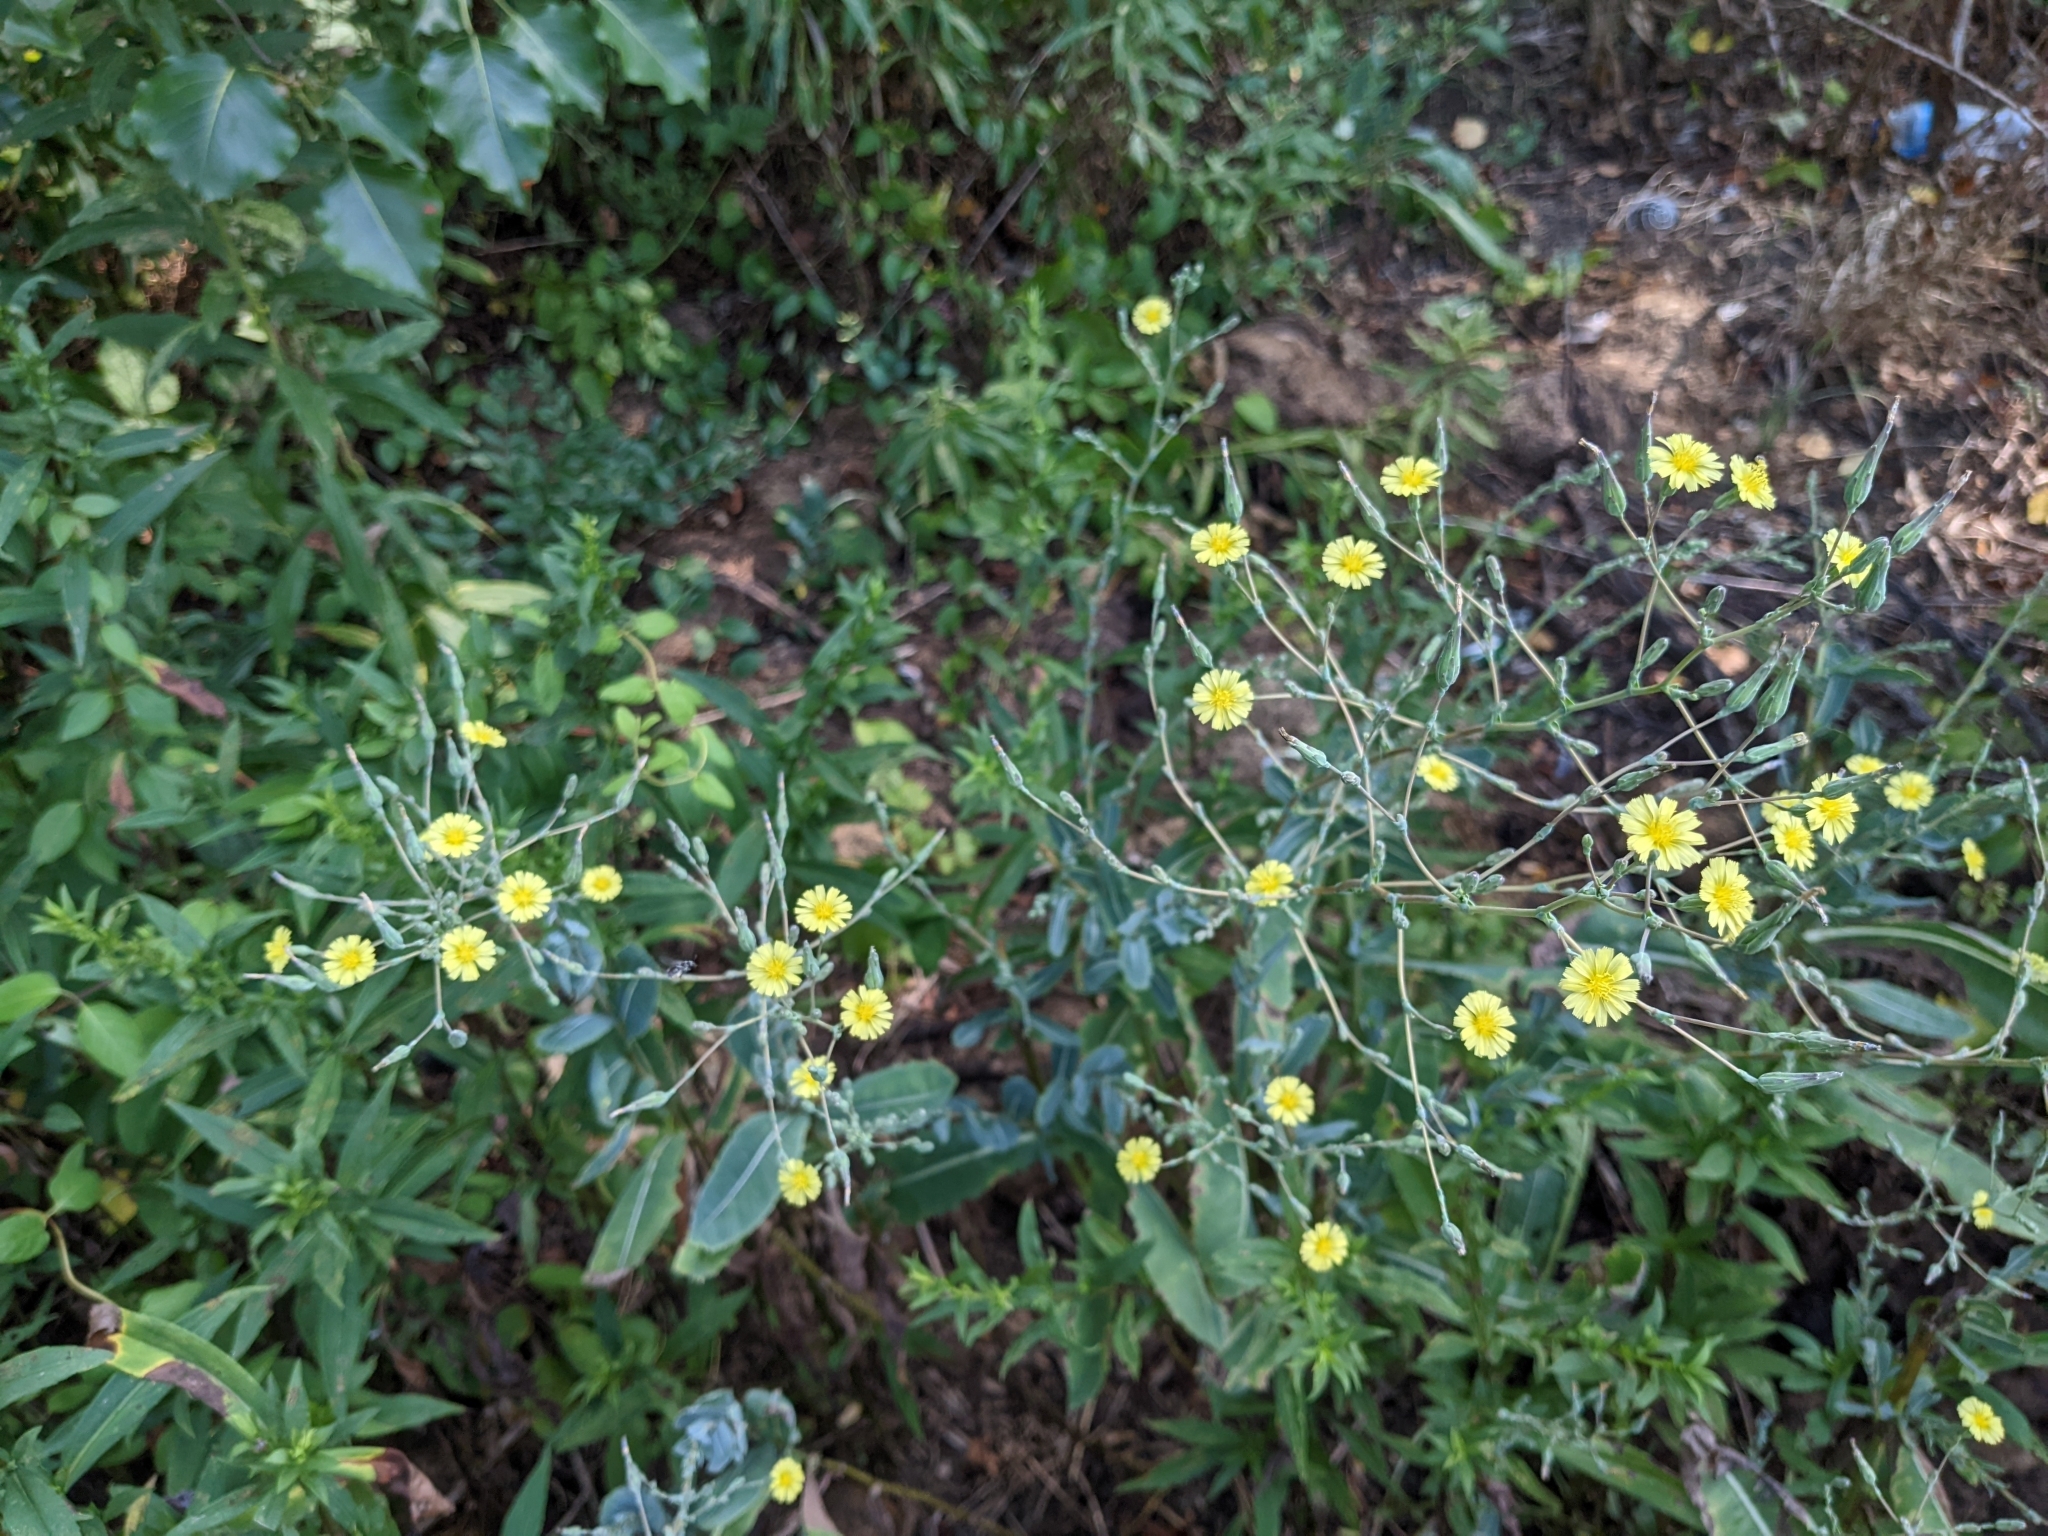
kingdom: Plantae
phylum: Tracheophyta
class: Magnoliopsida
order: Asterales
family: Asteraceae
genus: Lactuca
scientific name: Lactuca serriola
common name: Prickly lettuce
